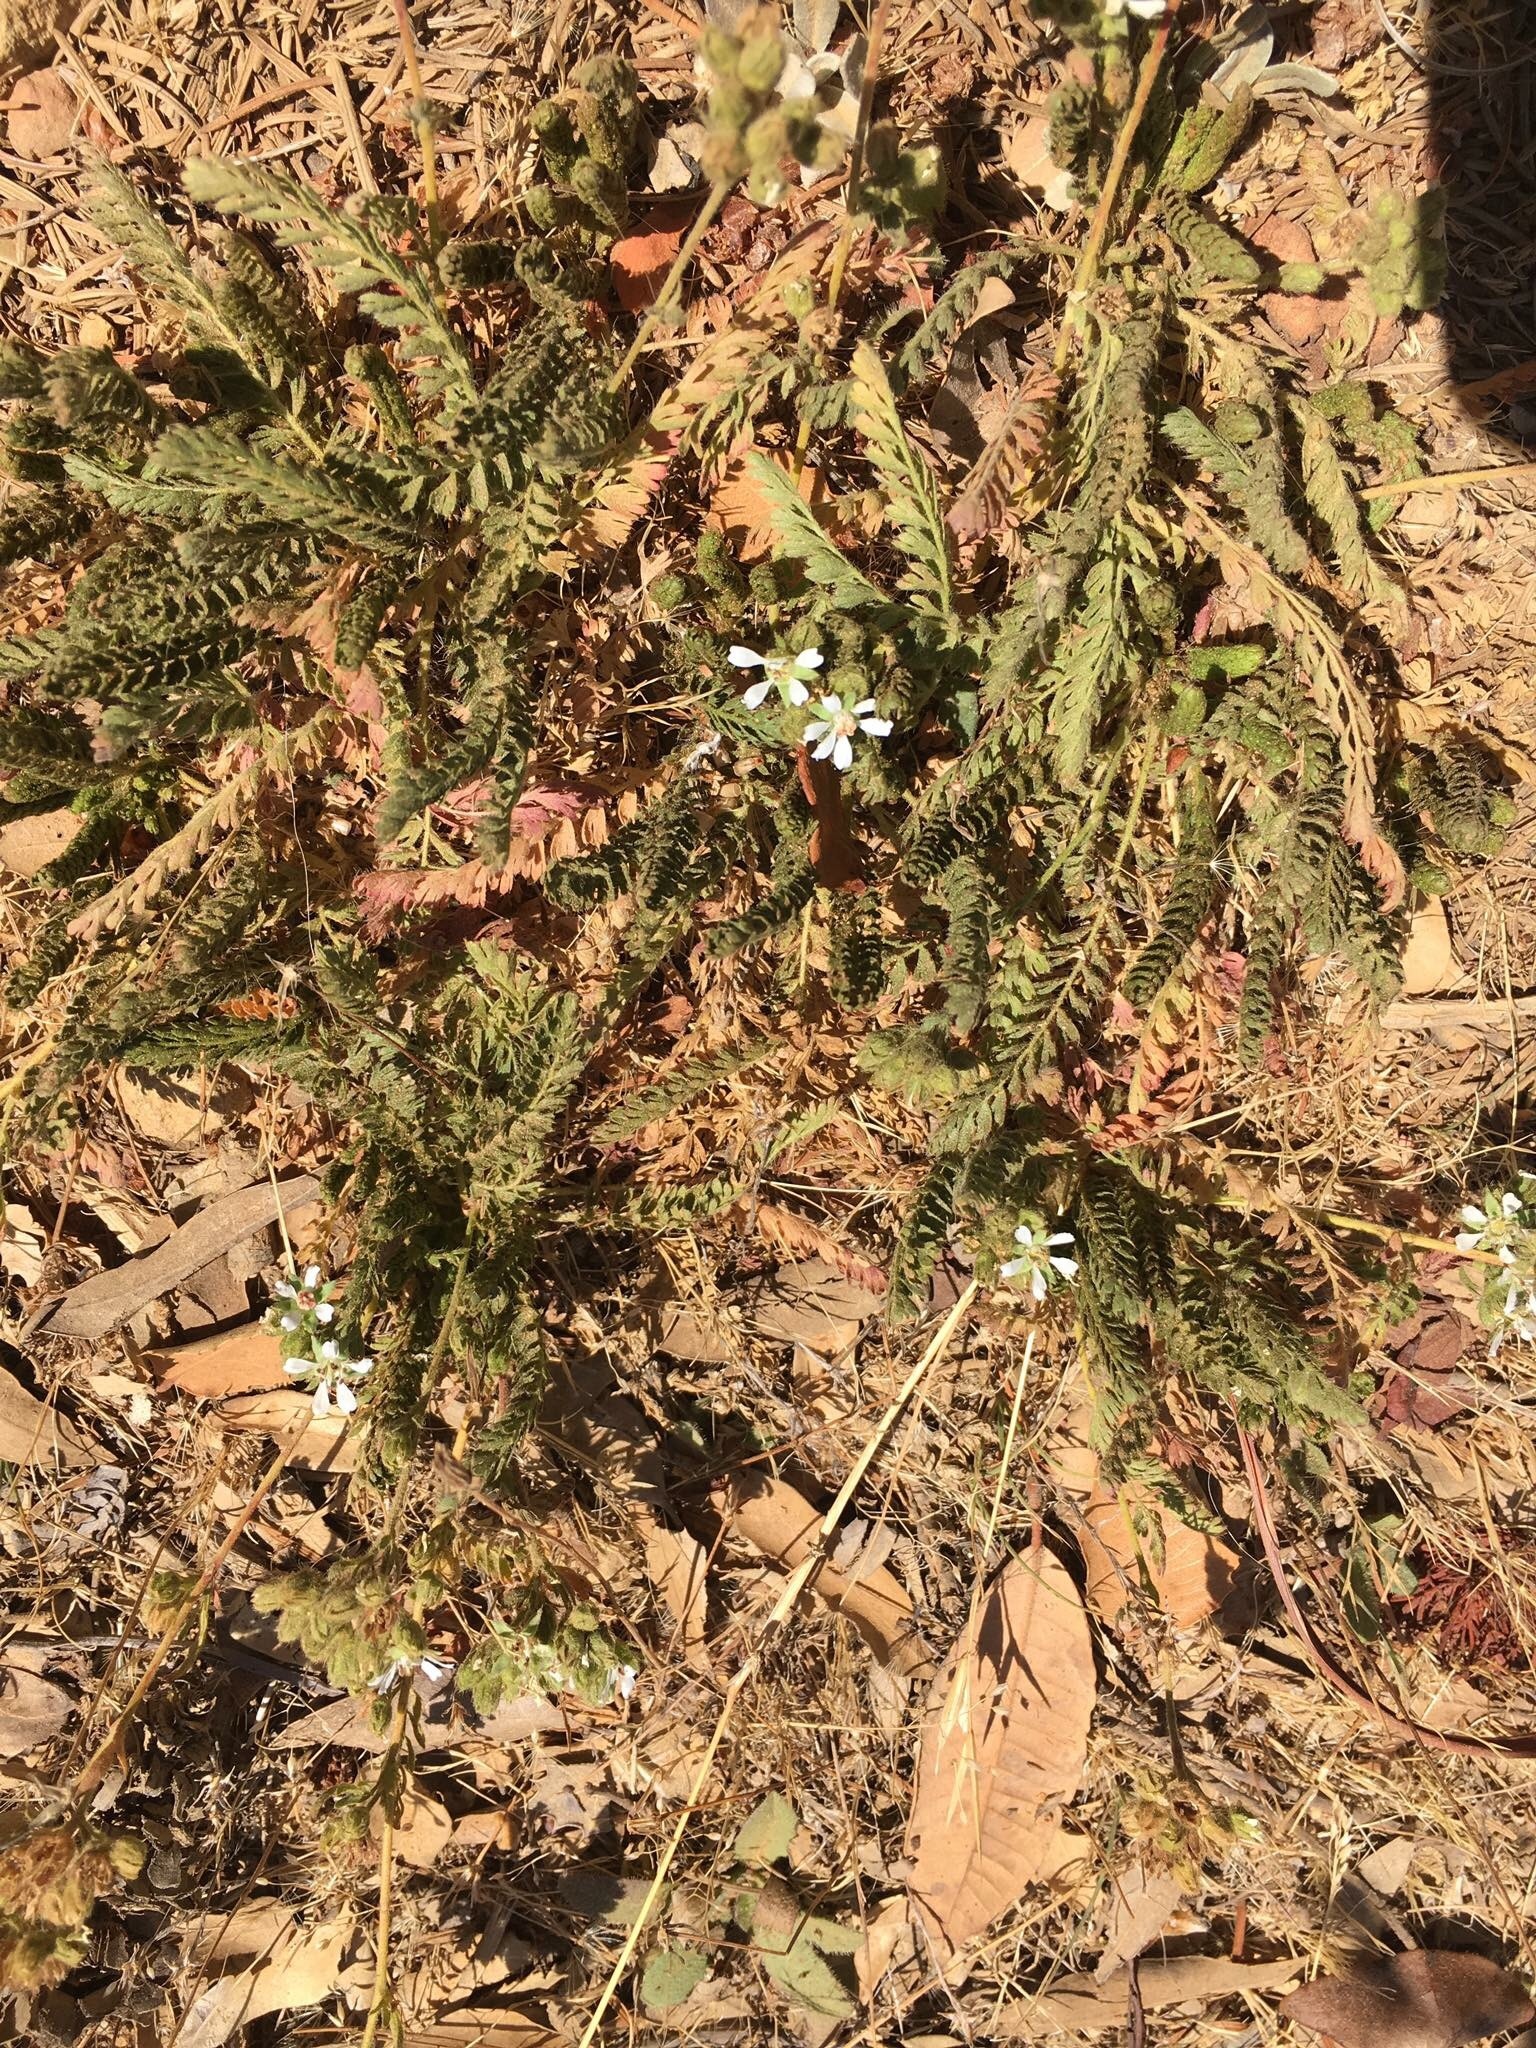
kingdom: Plantae
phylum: Tracheophyta
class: Magnoliopsida
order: Rosales
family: Rosaceae
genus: Potentilla
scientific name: Potentilla micheneri
